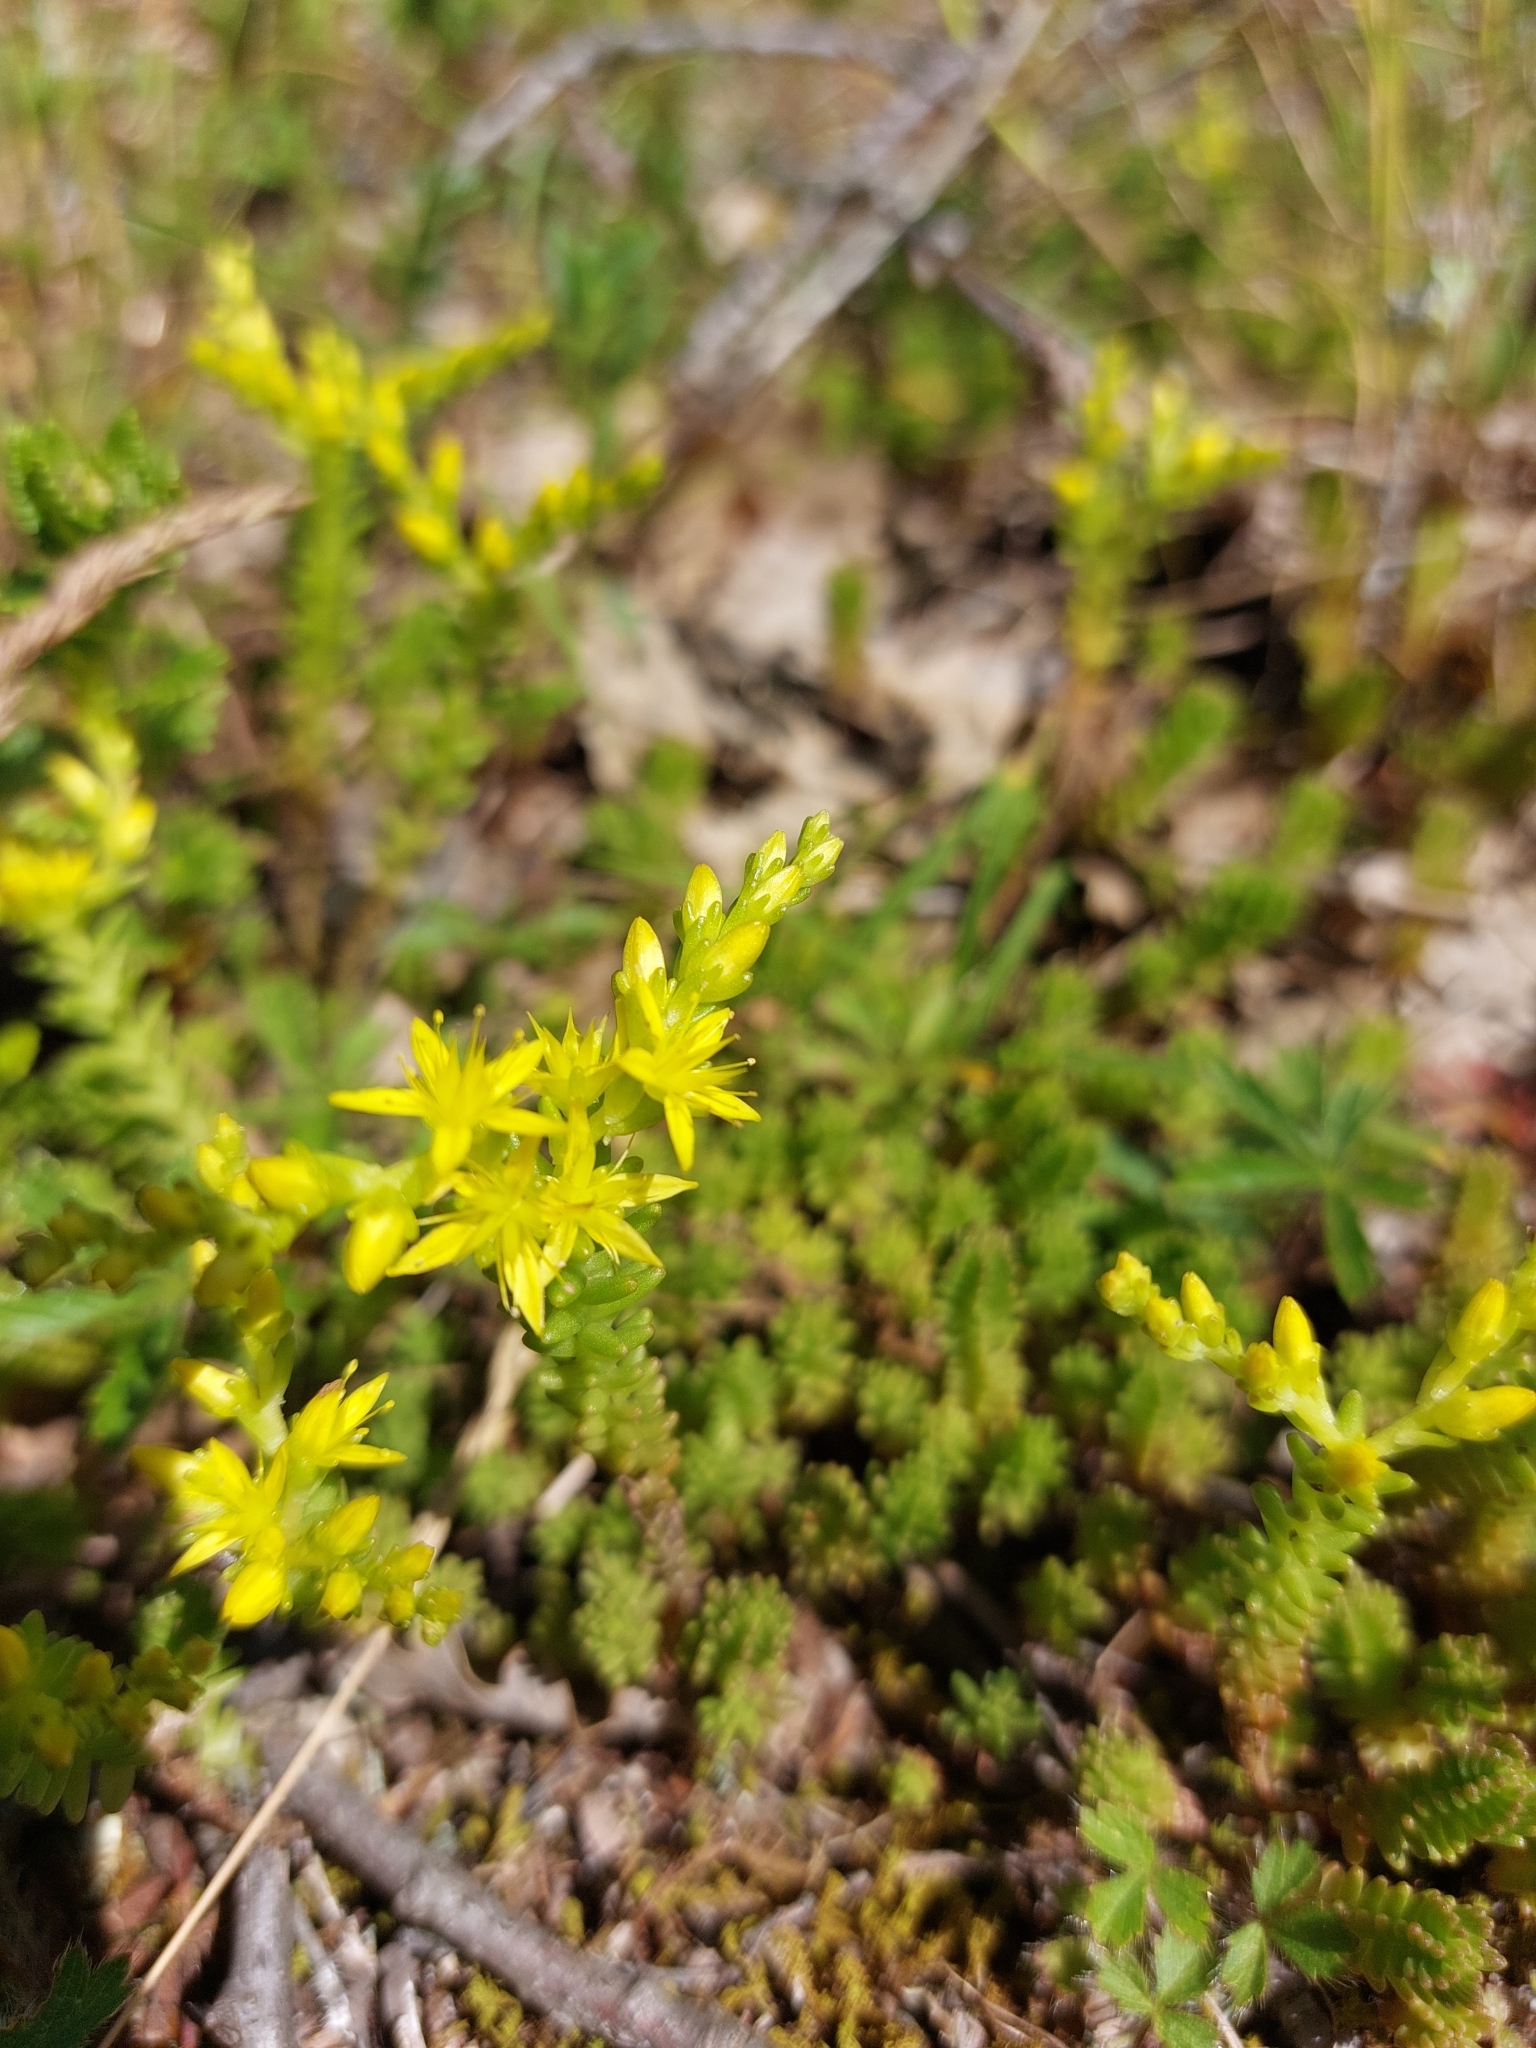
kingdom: Plantae
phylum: Tracheophyta
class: Magnoliopsida
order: Saxifragales
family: Crassulaceae
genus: Sedum
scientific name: Sedum sexangulare
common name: Tasteless stonecrop
